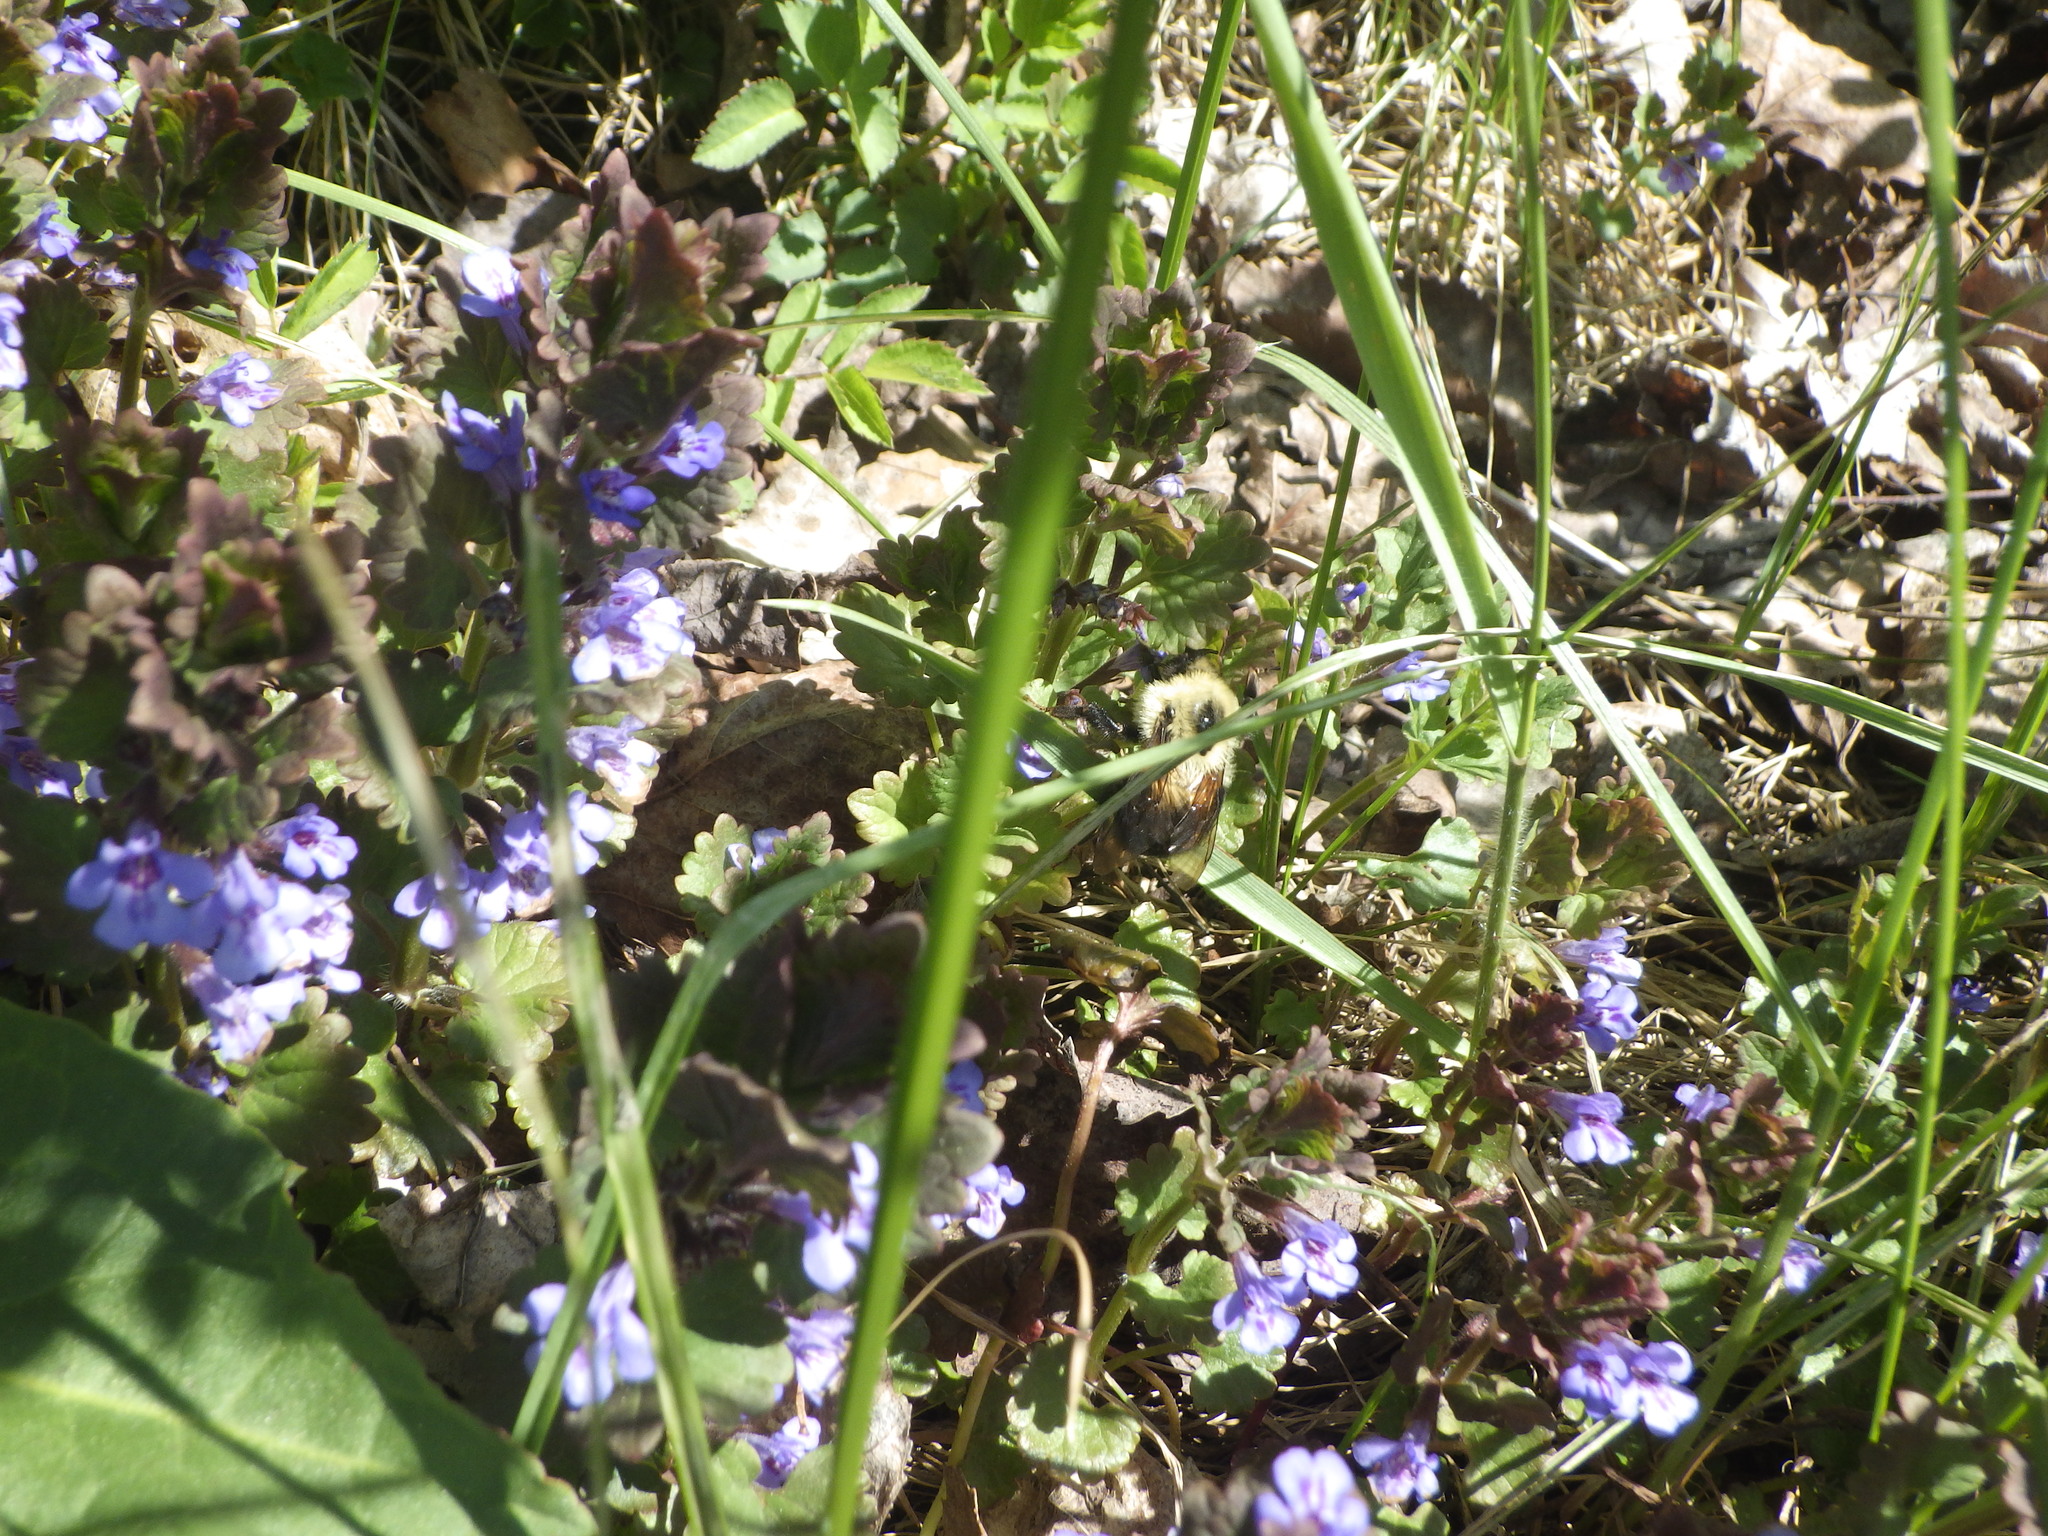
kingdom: Plantae
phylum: Tracheophyta
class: Magnoliopsida
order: Lamiales
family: Lamiaceae
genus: Glechoma
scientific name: Glechoma hederacea
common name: Ground ivy
